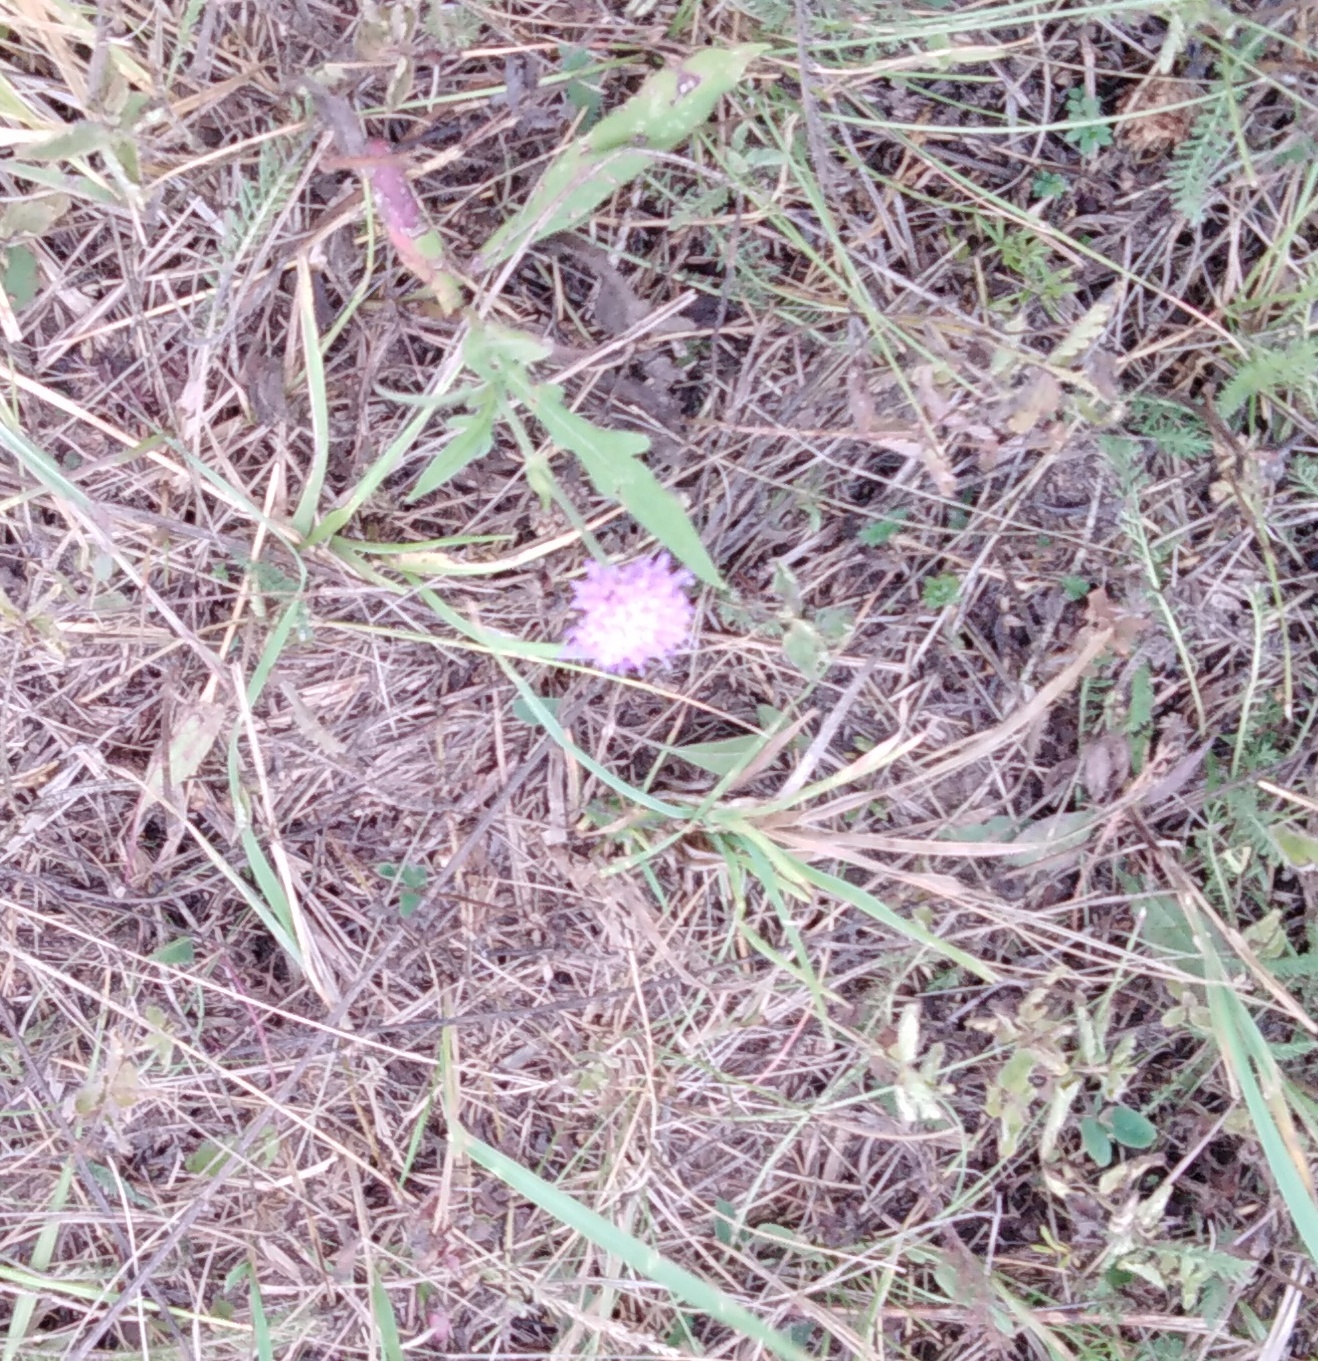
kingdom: Plantae
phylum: Tracheophyta
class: Magnoliopsida
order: Dipsacales
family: Caprifoliaceae
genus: Knautia
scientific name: Knautia arvensis
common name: Field scabiosa
